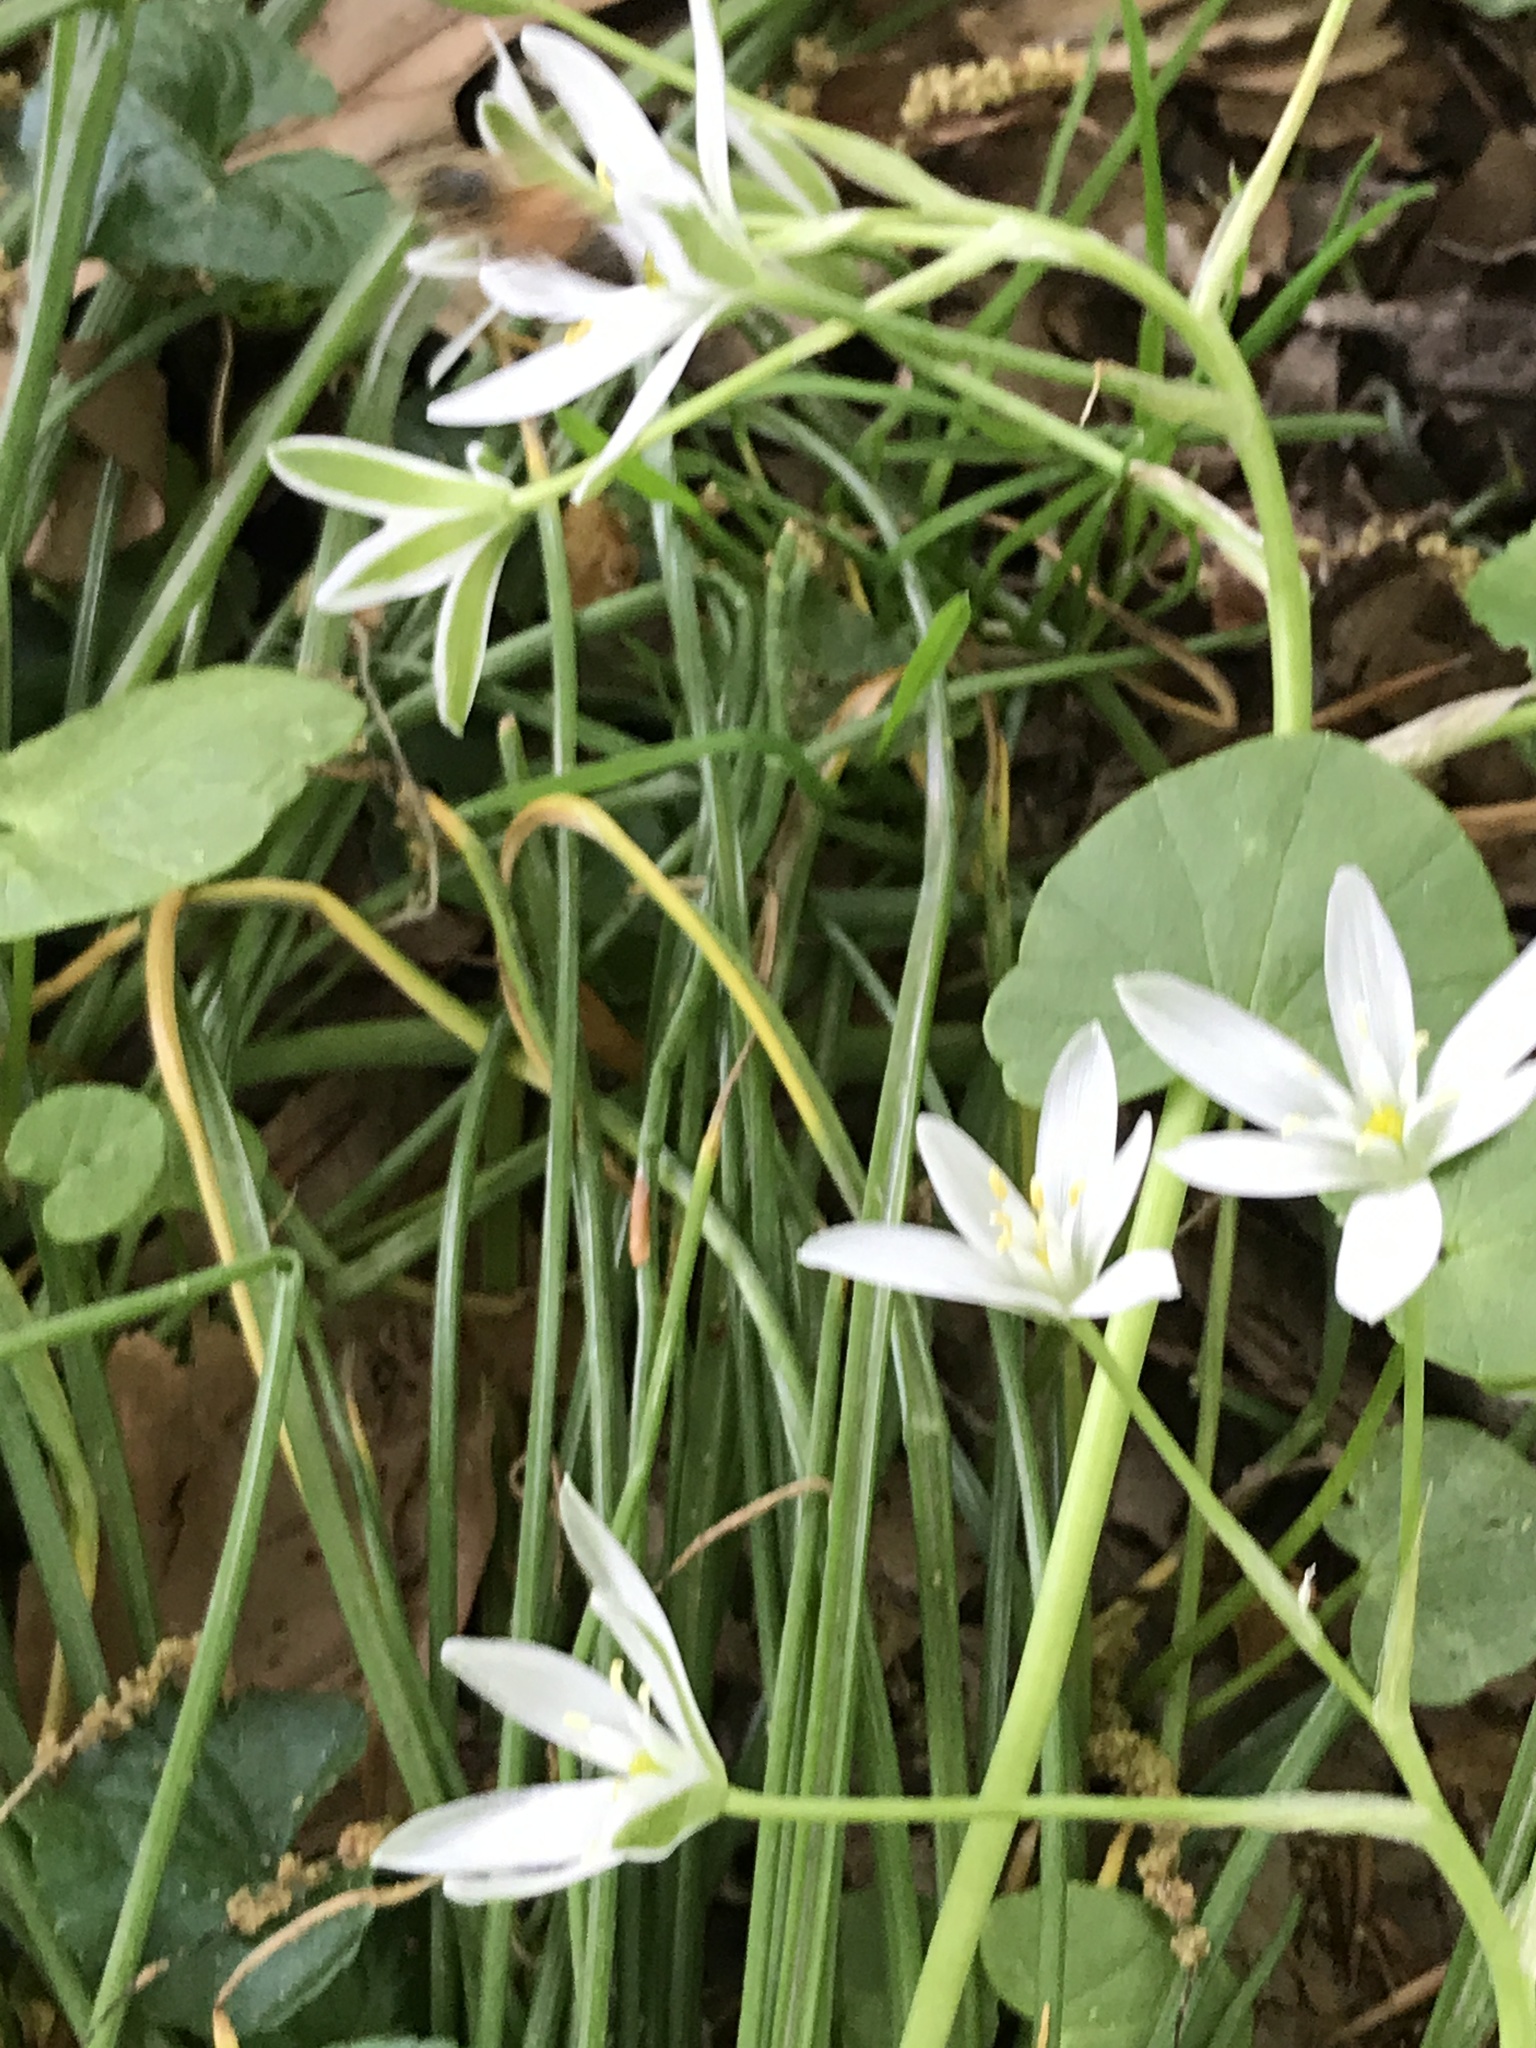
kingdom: Plantae
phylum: Tracheophyta
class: Liliopsida
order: Asparagales
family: Asparagaceae
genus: Ornithogalum
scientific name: Ornithogalum umbellatum
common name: Garden star-of-bethlehem
